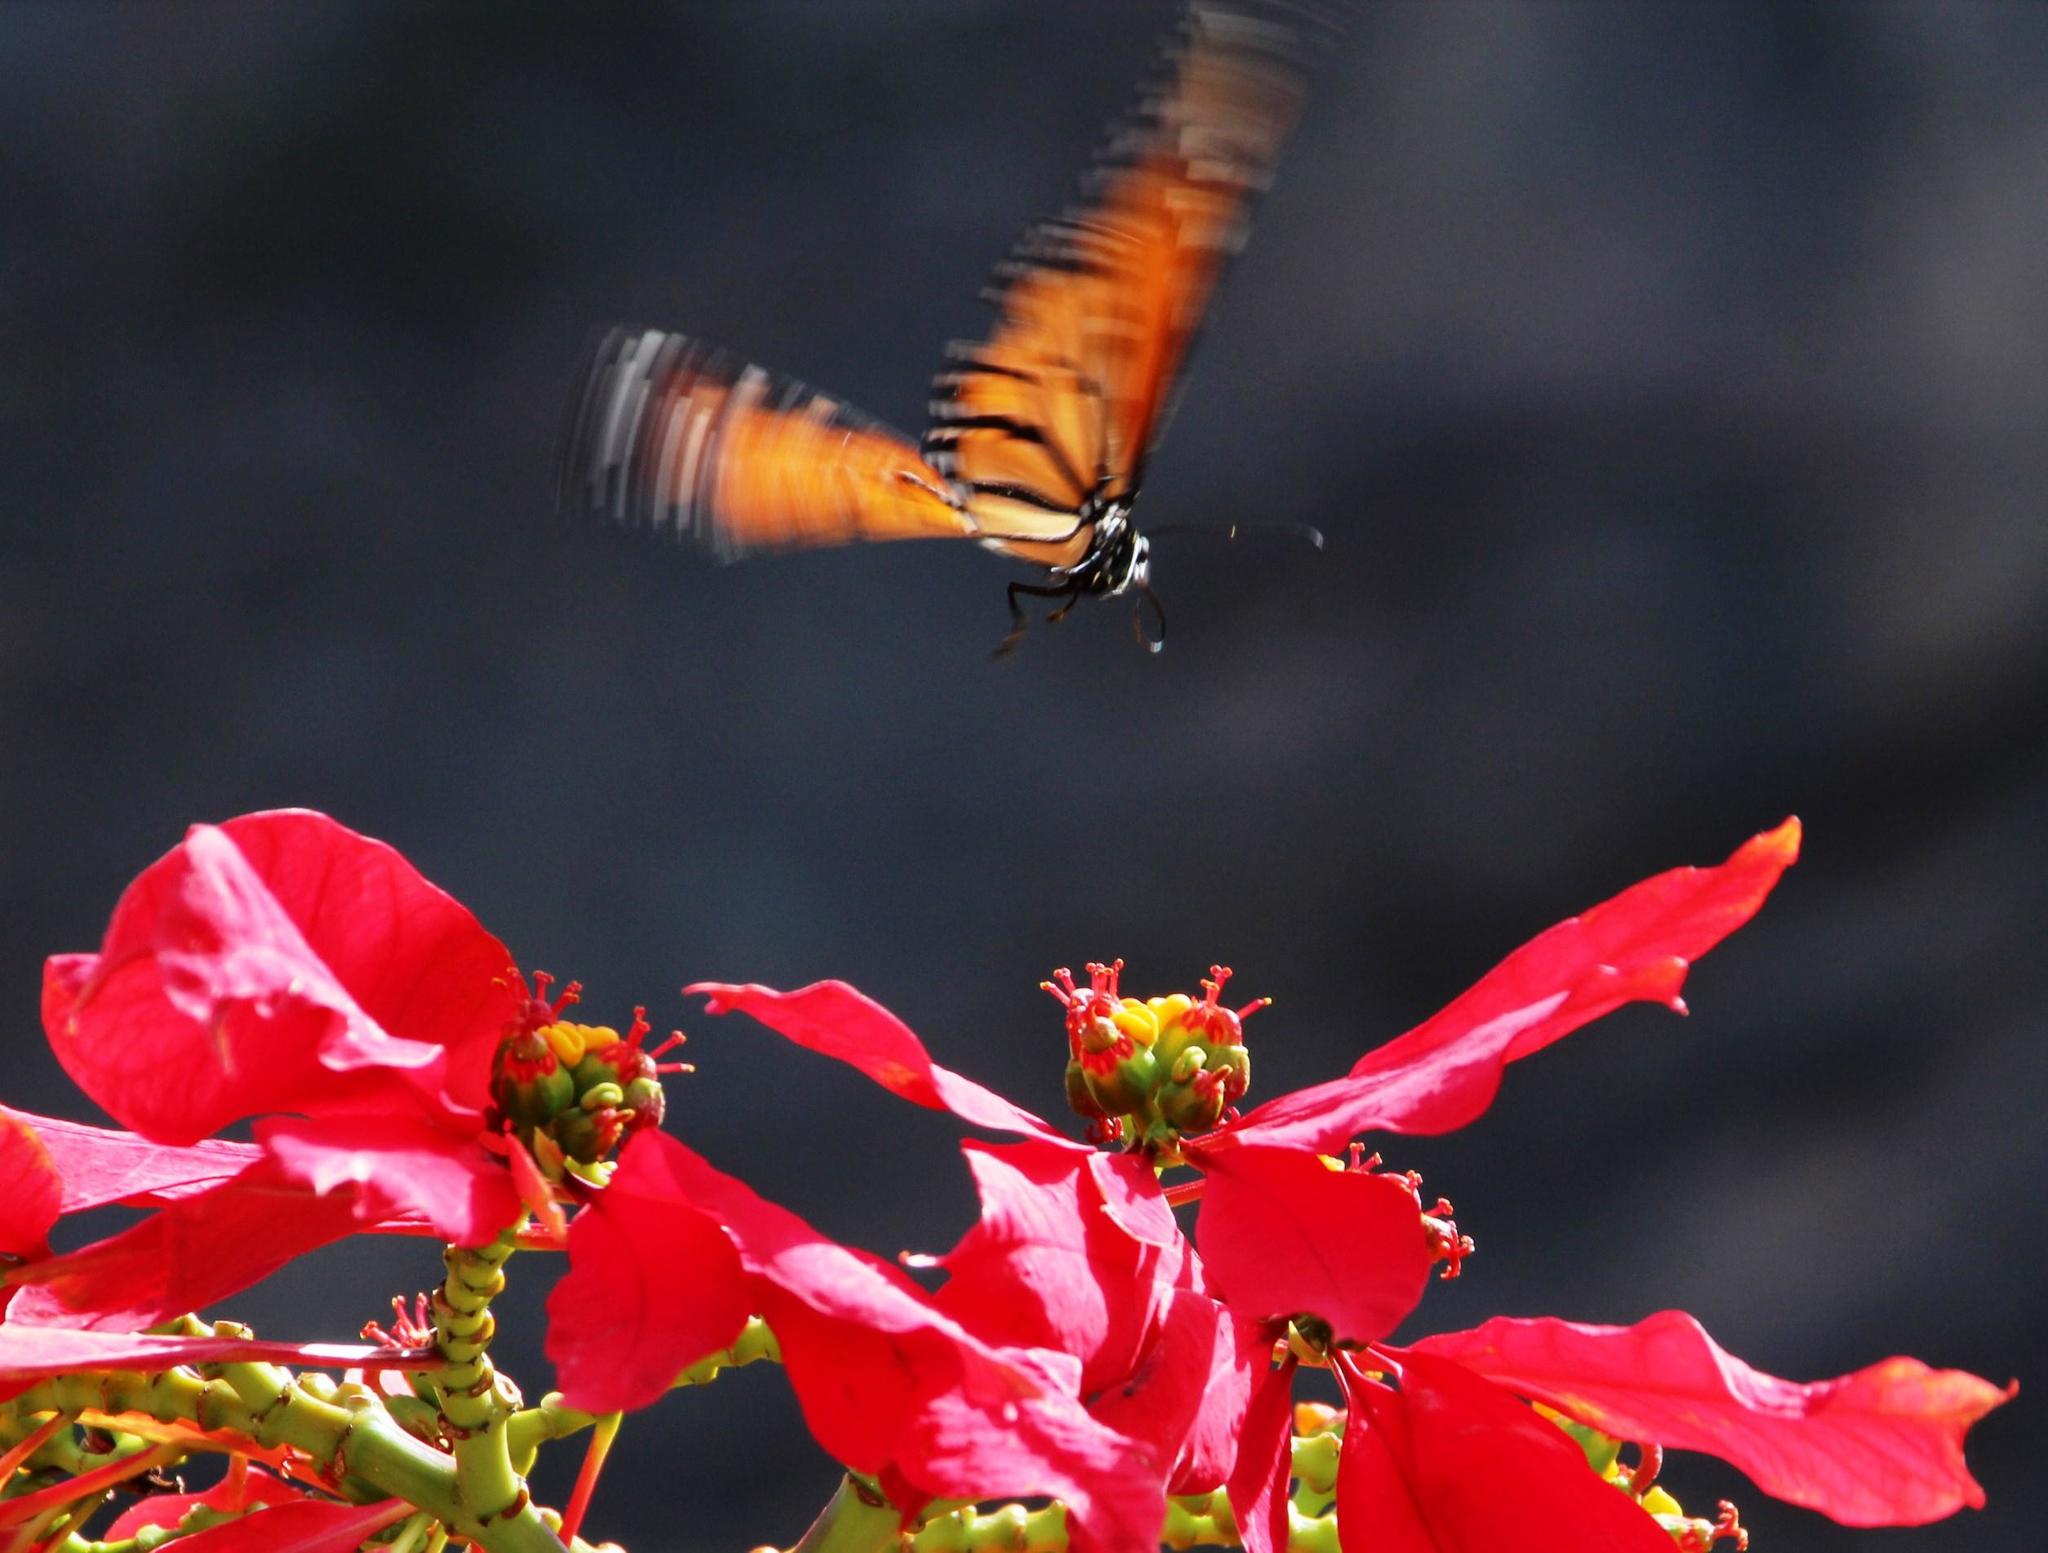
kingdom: Animalia
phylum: Arthropoda
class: Insecta
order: Lepidoptera
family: Nymphalidae
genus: Danaus
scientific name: Danaus plexippus
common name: Monarch
